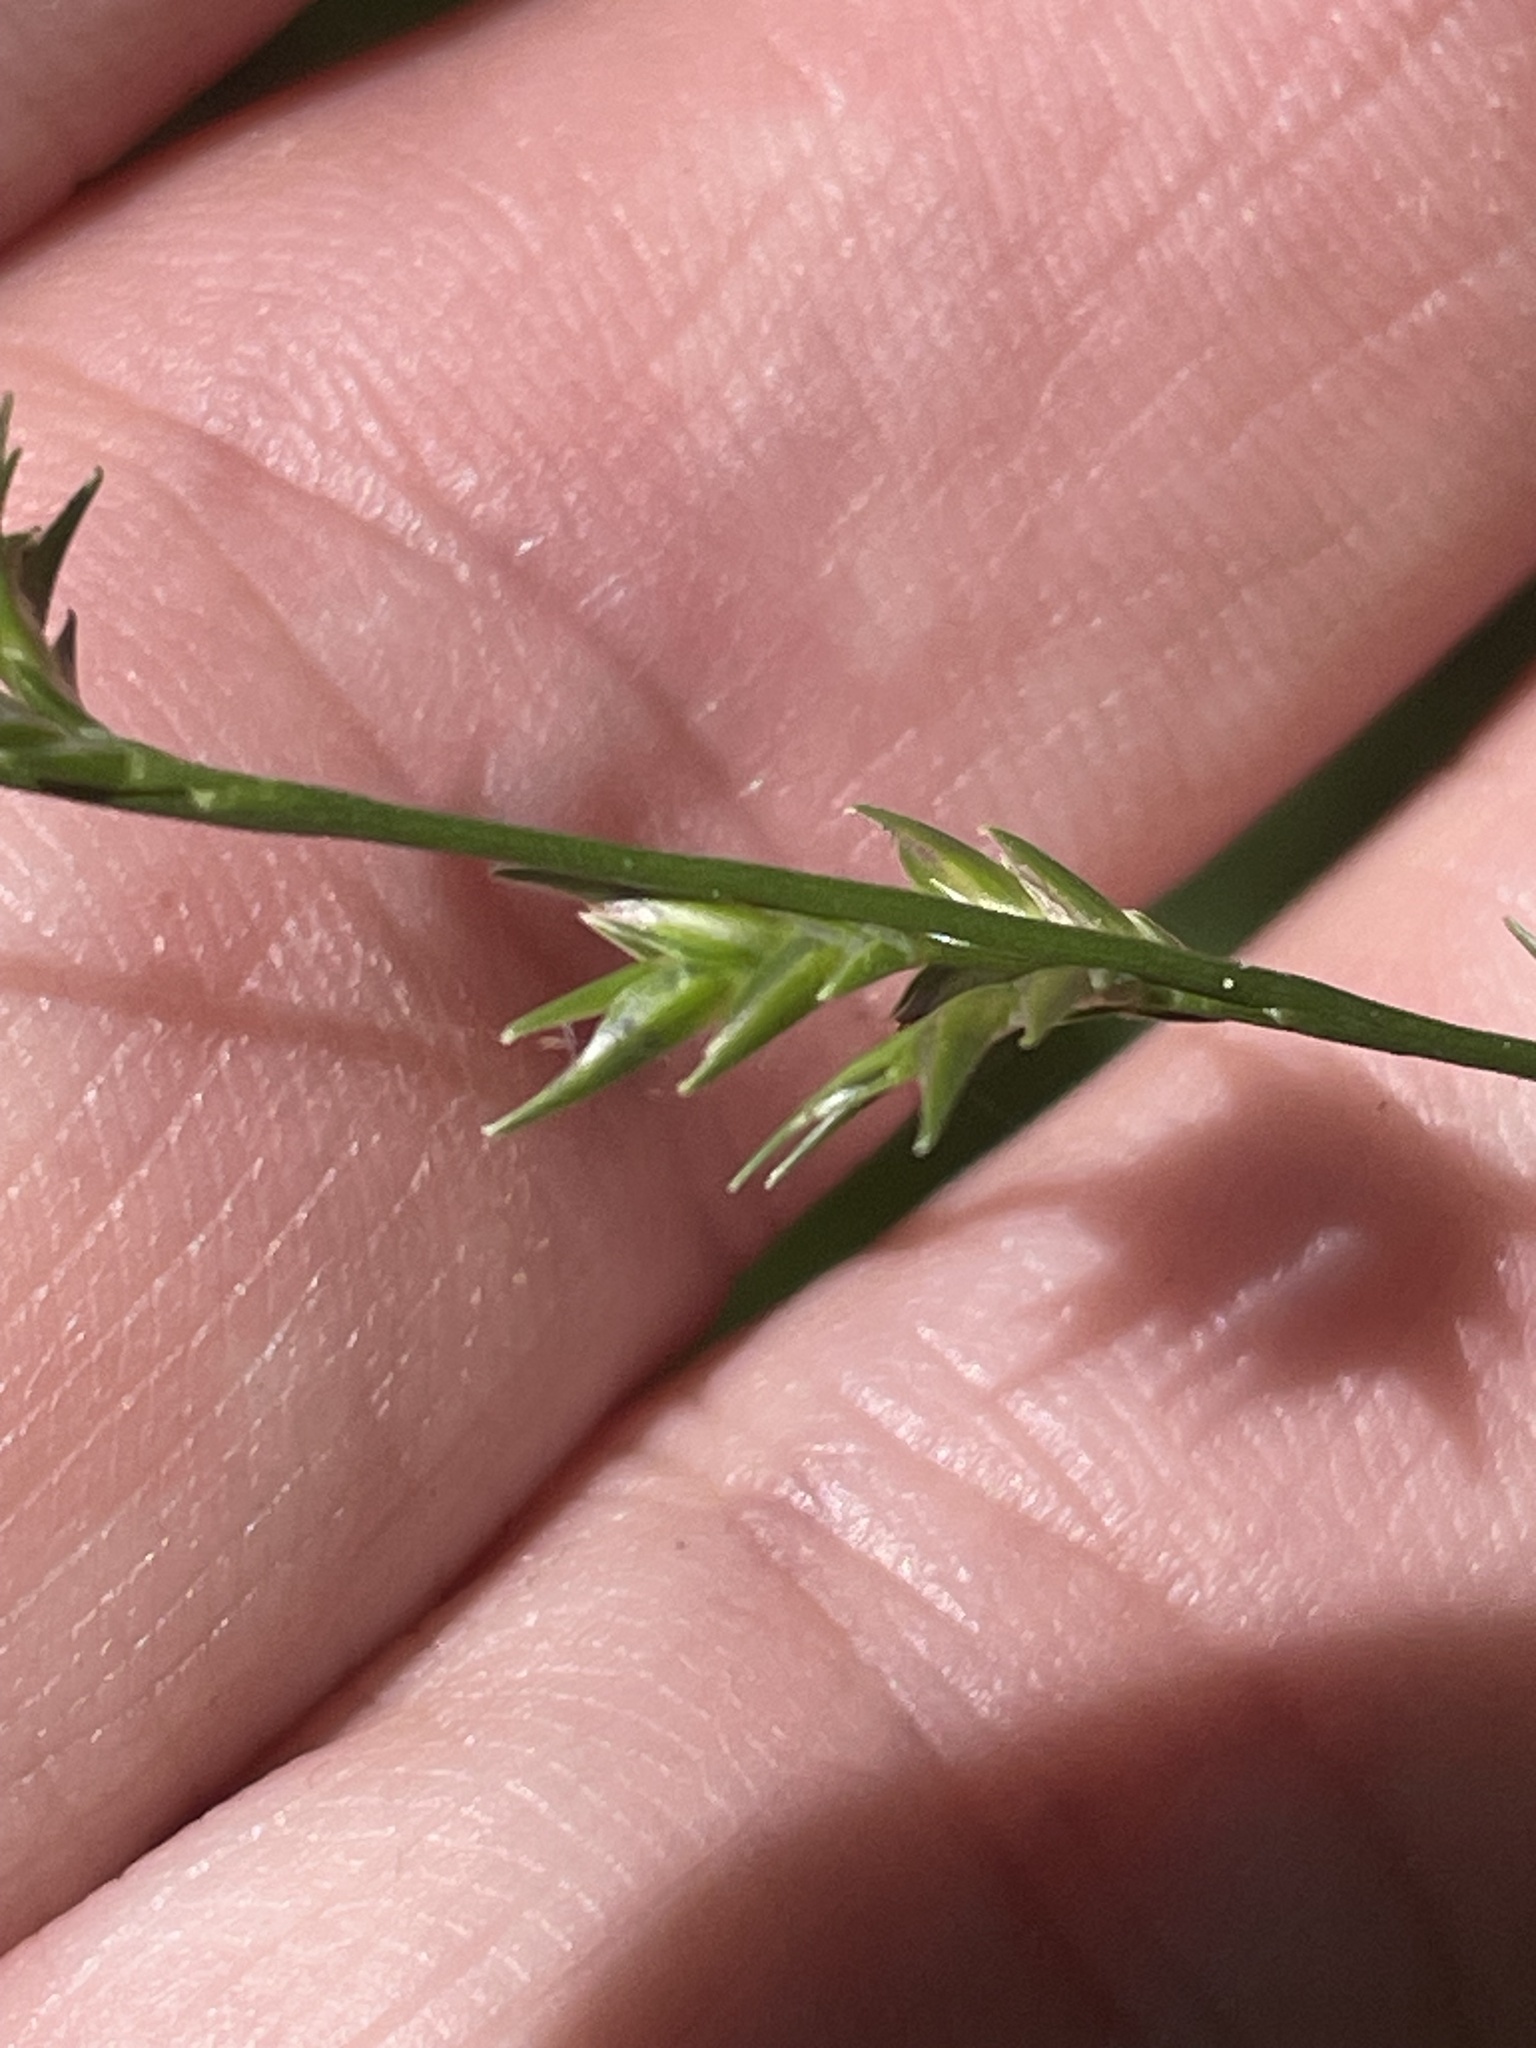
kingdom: Plantae
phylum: Tracheophyta
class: Liliopsida
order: Poales
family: Poaceae
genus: Chasmanthium
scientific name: Chasmanthium laxum
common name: Slender chasmanthium
